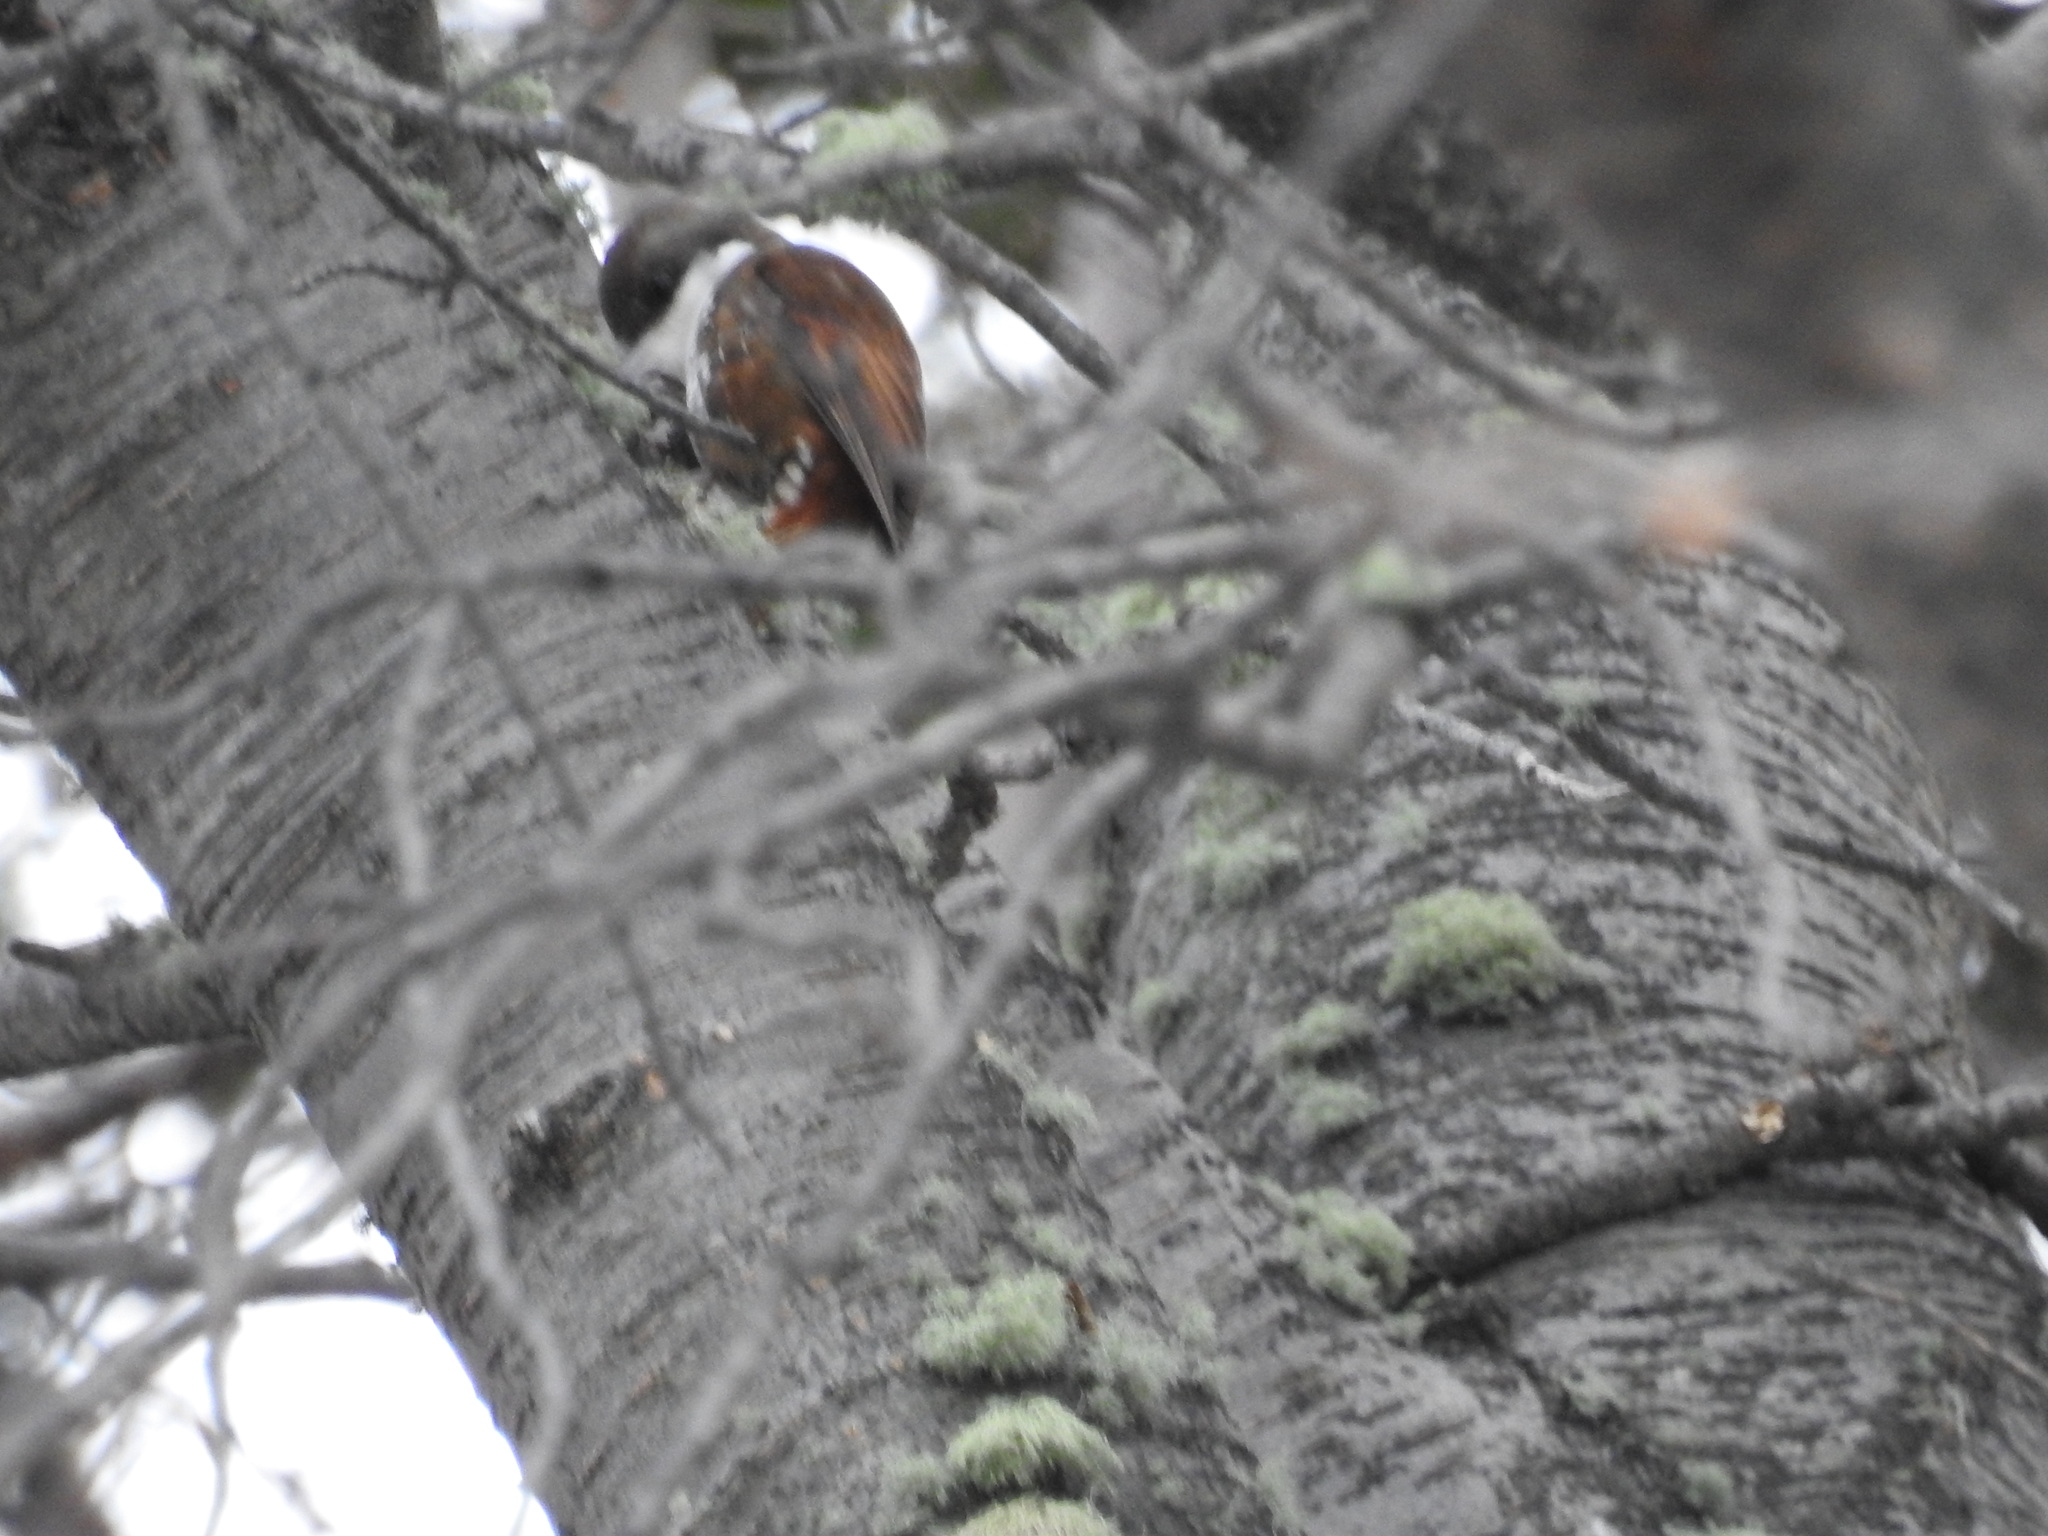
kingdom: Animalia
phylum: Chordata
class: Aves
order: Passeriformes
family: Furnariidae
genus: Pygarrhichas
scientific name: Pygarrhichas albogularis
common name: White-throated treerunner
